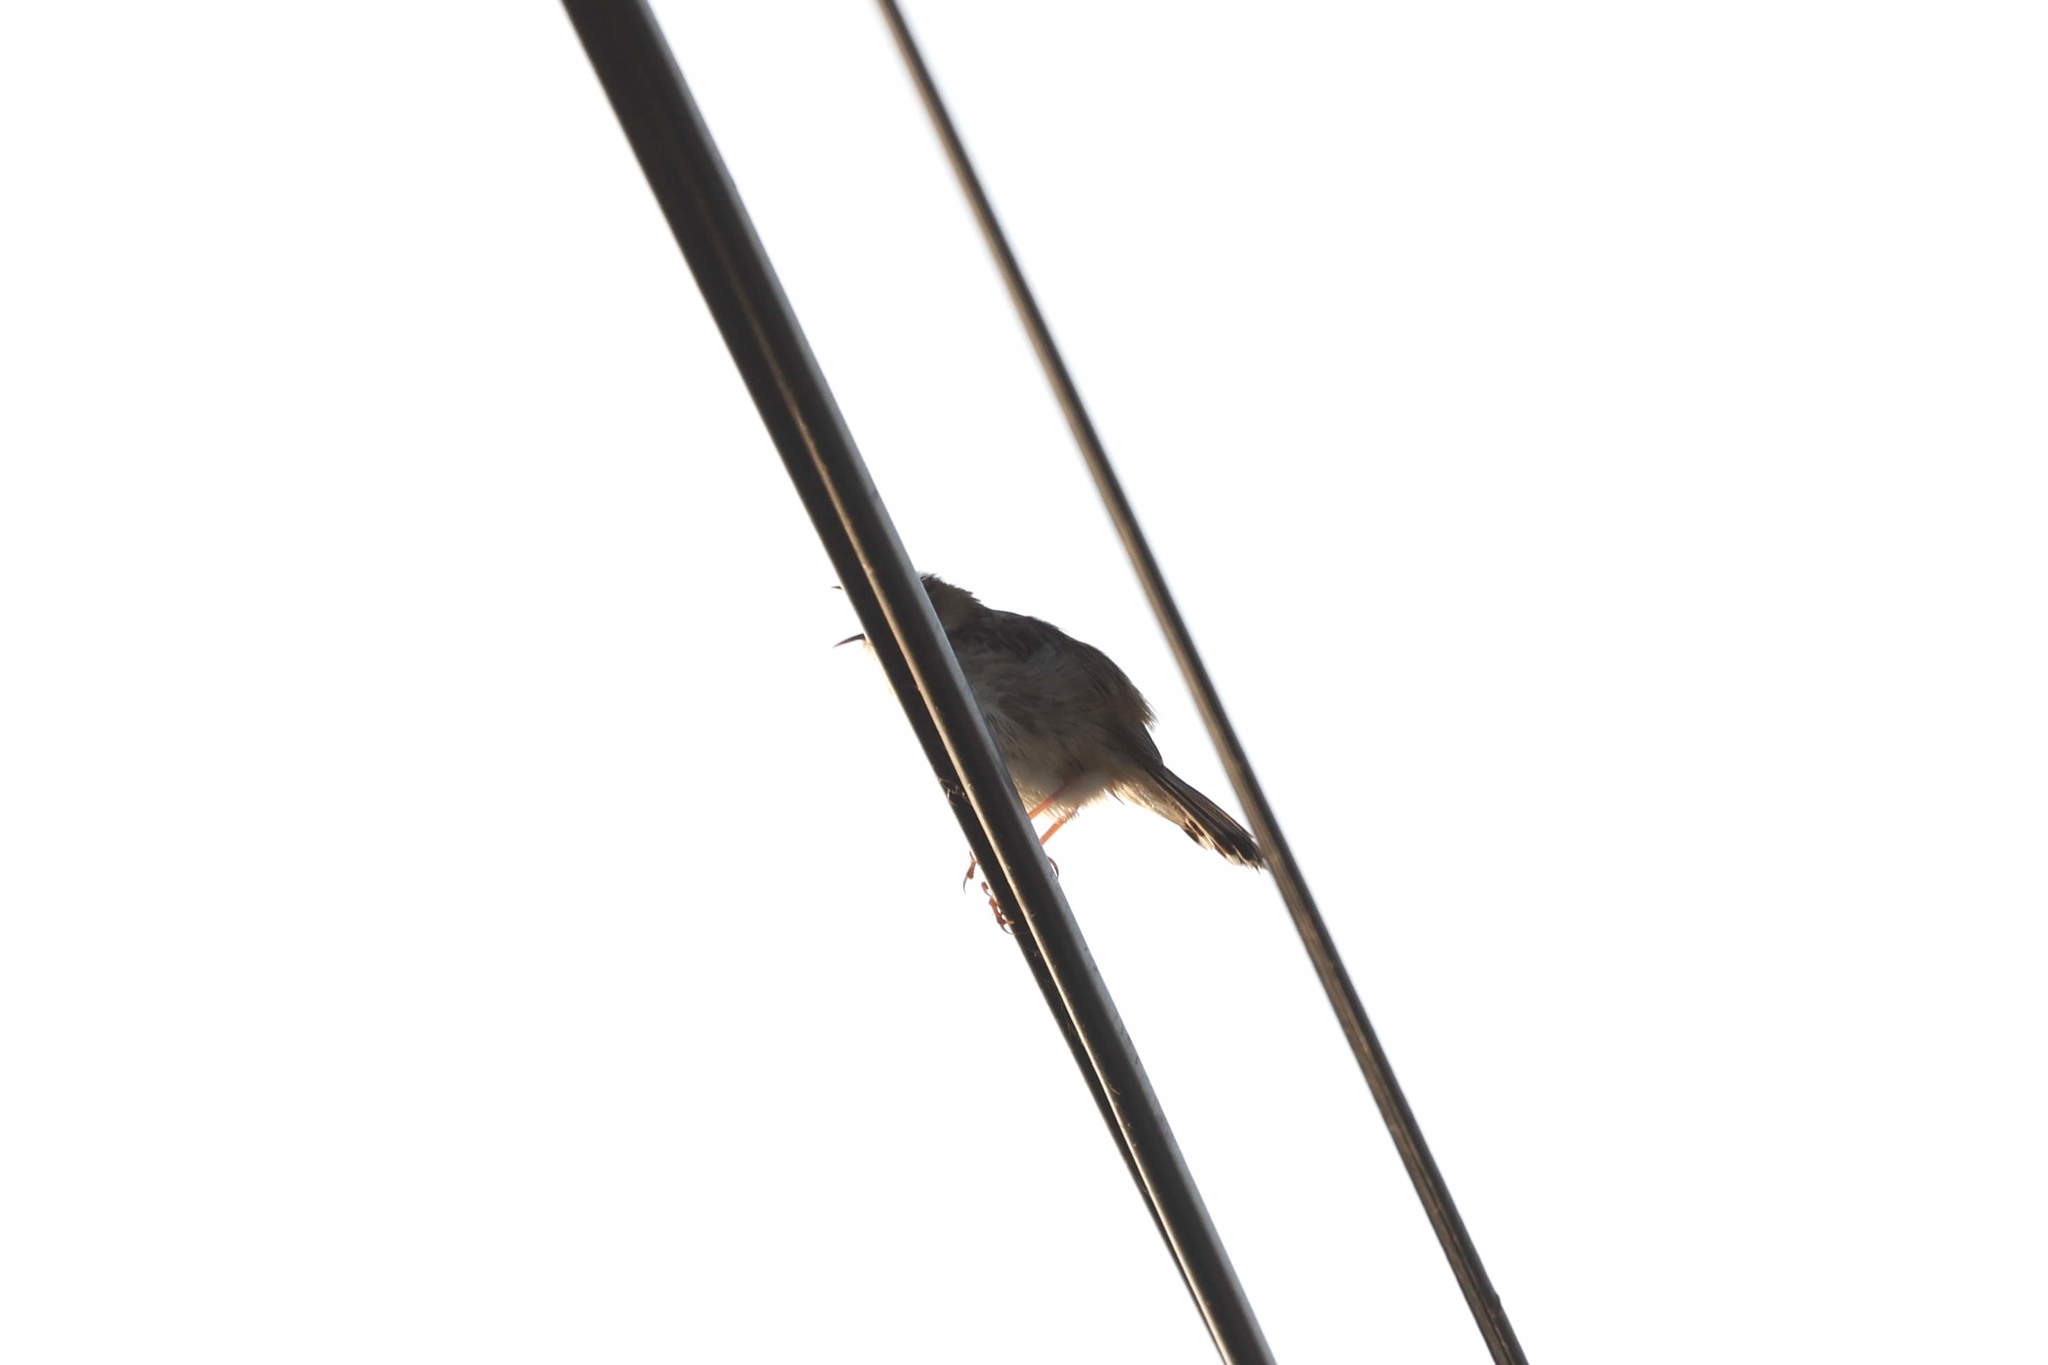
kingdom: Animalia
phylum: Chordata
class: Aves
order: Passeriformes
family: Cisticolidae
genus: Cisticola
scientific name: Cisticola juncidis
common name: Zitting cisticola
